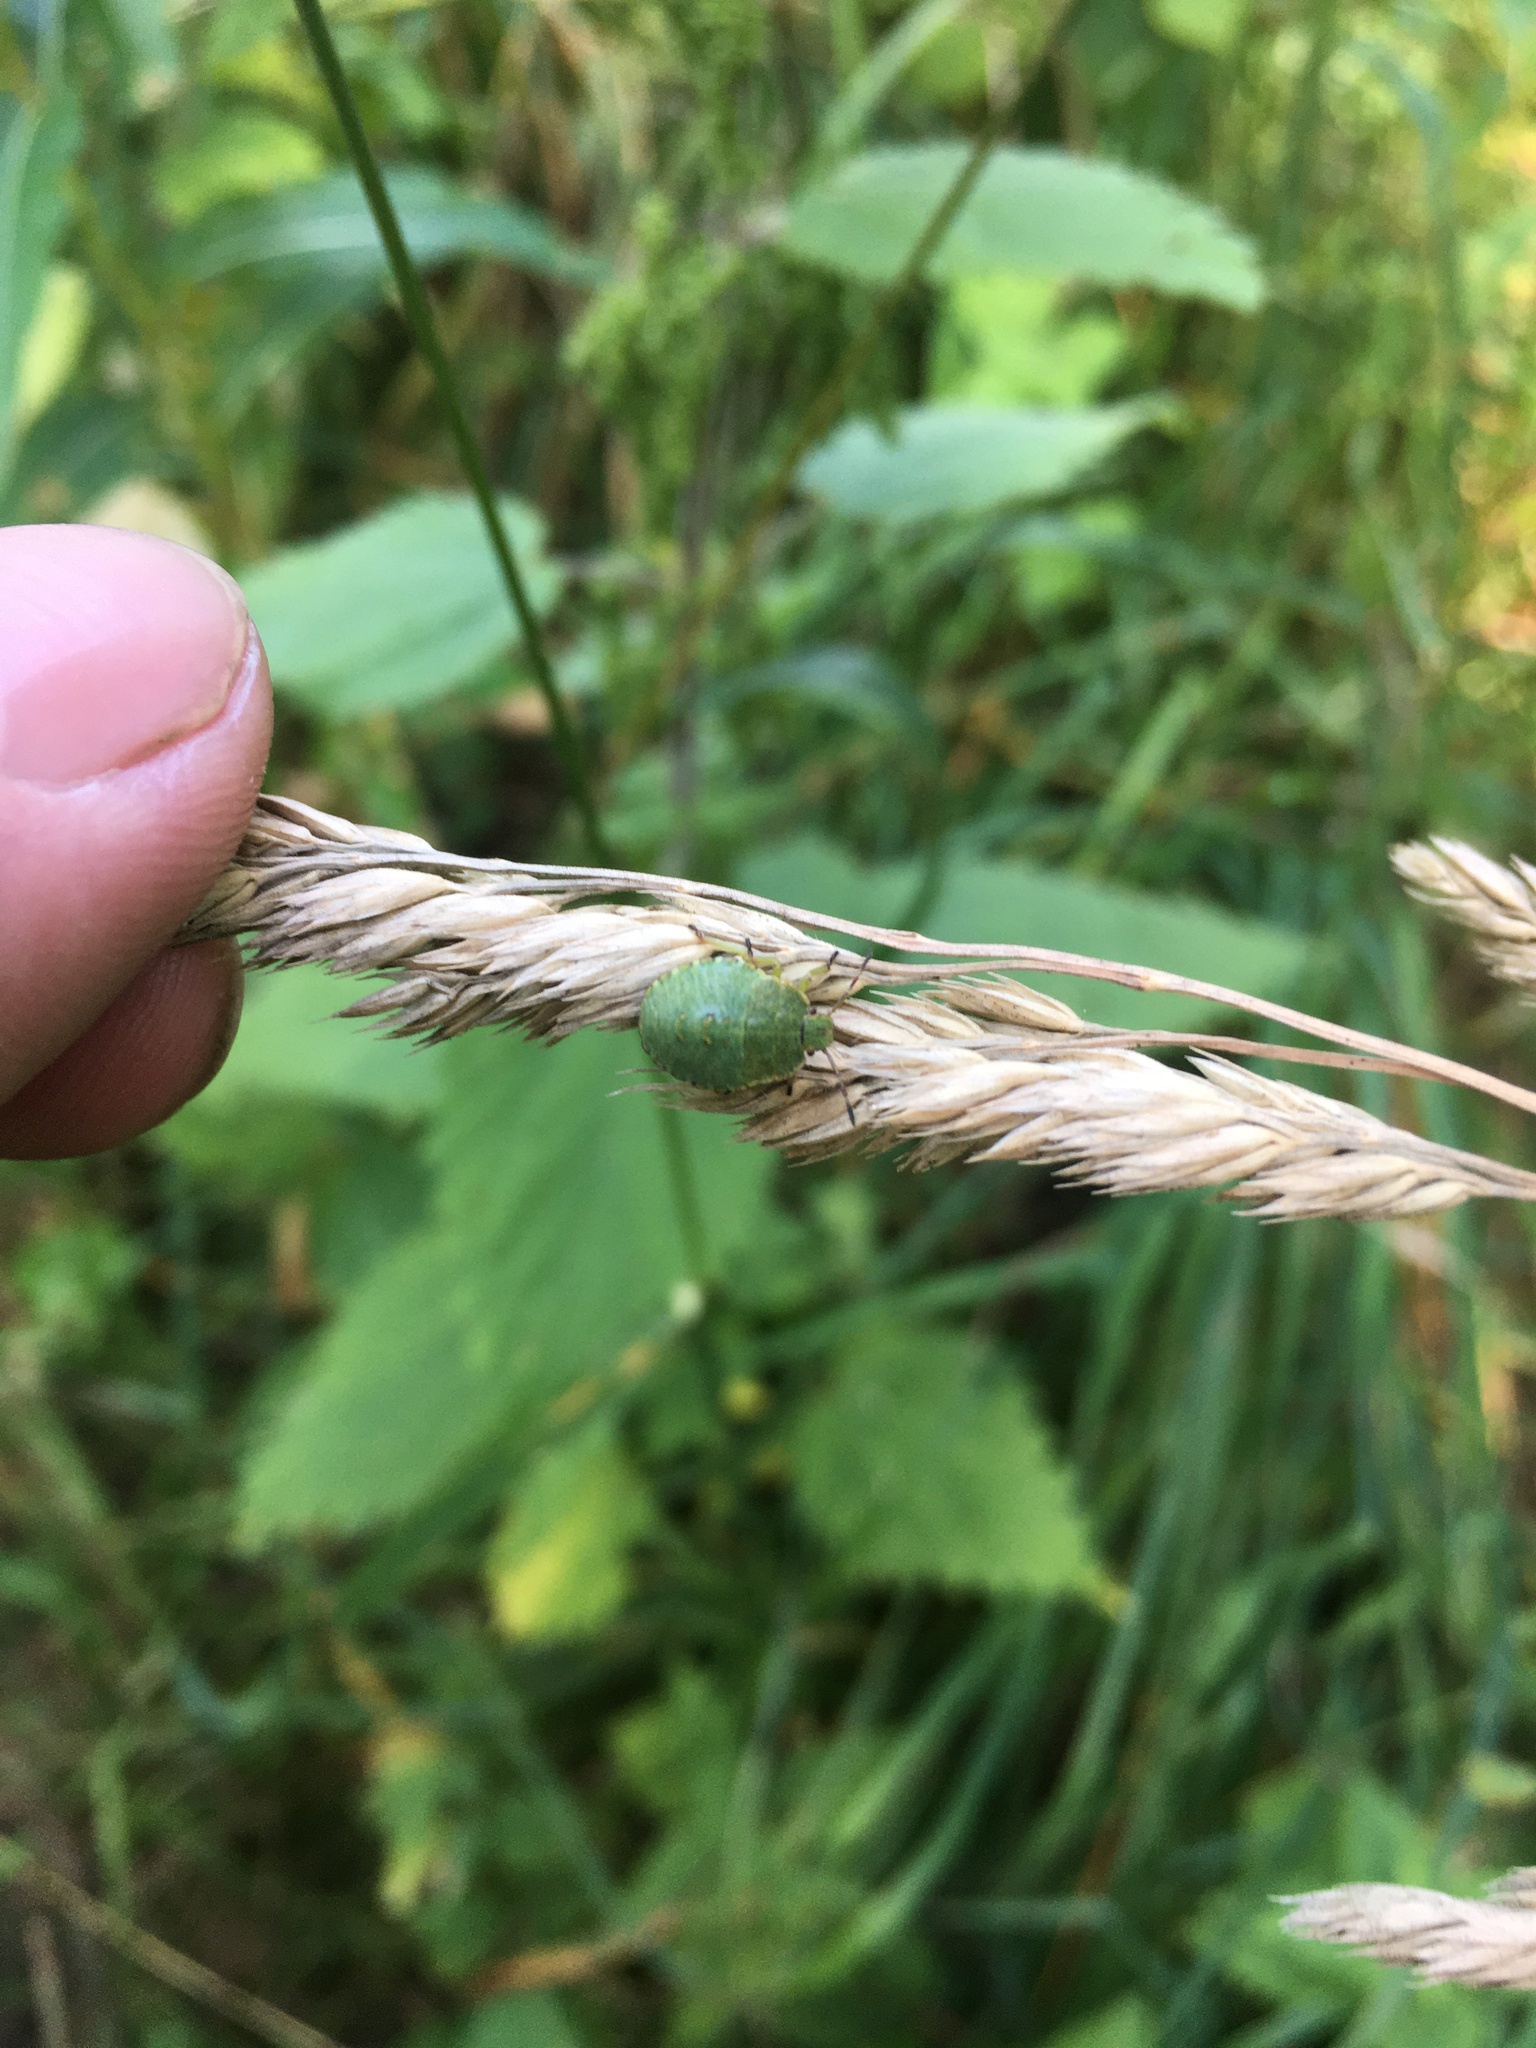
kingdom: Animalia
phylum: Arthropoda
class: Insecta
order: Hemiptera
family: Pentatomidae
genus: Palomena
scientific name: Palomena prasina
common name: Green shieldbug
